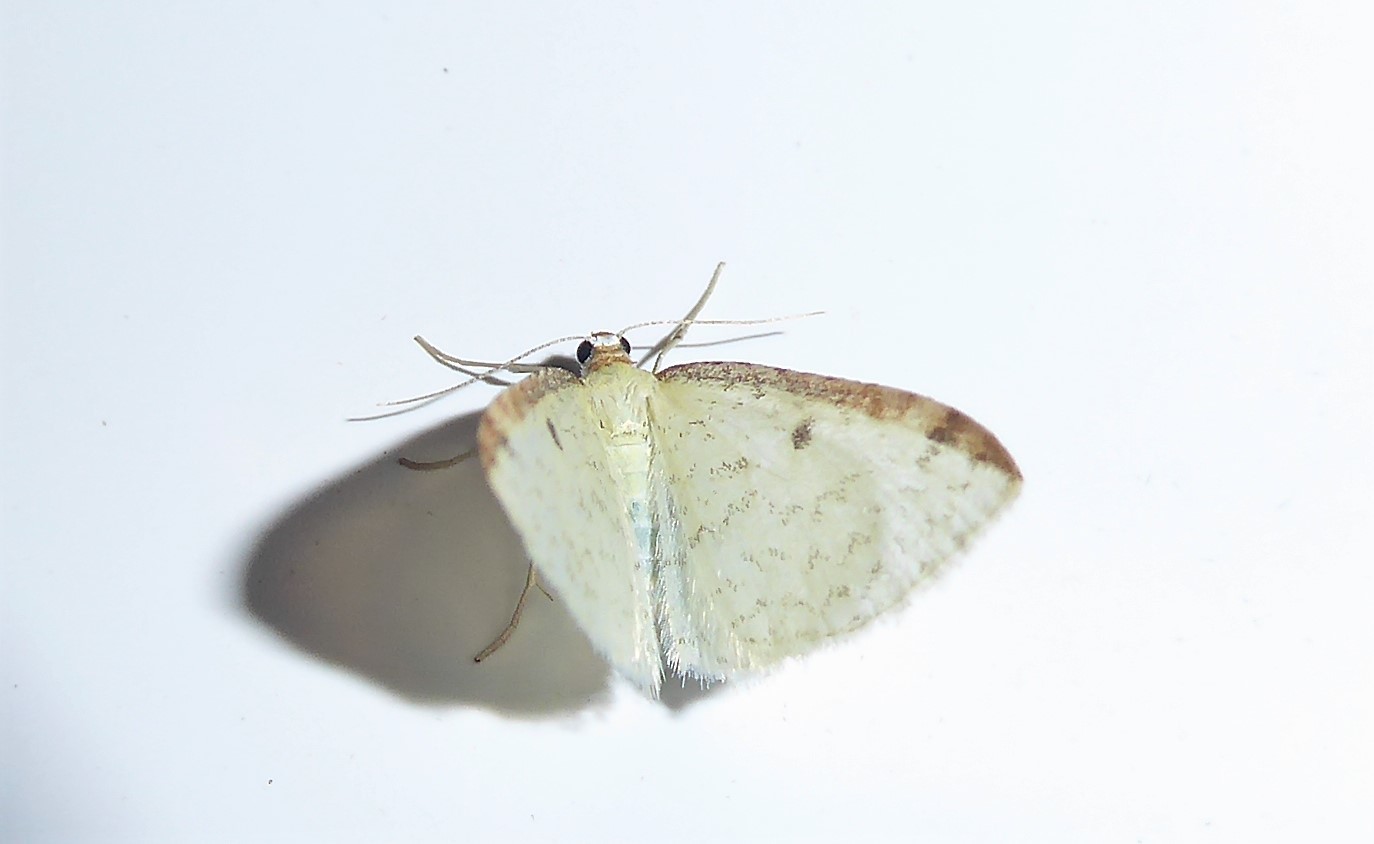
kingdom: Animalia
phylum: Arthropoda
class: Insecta
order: Lepidoptera
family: Geometridae
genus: Epiphryne
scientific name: Epiphryne undosata
